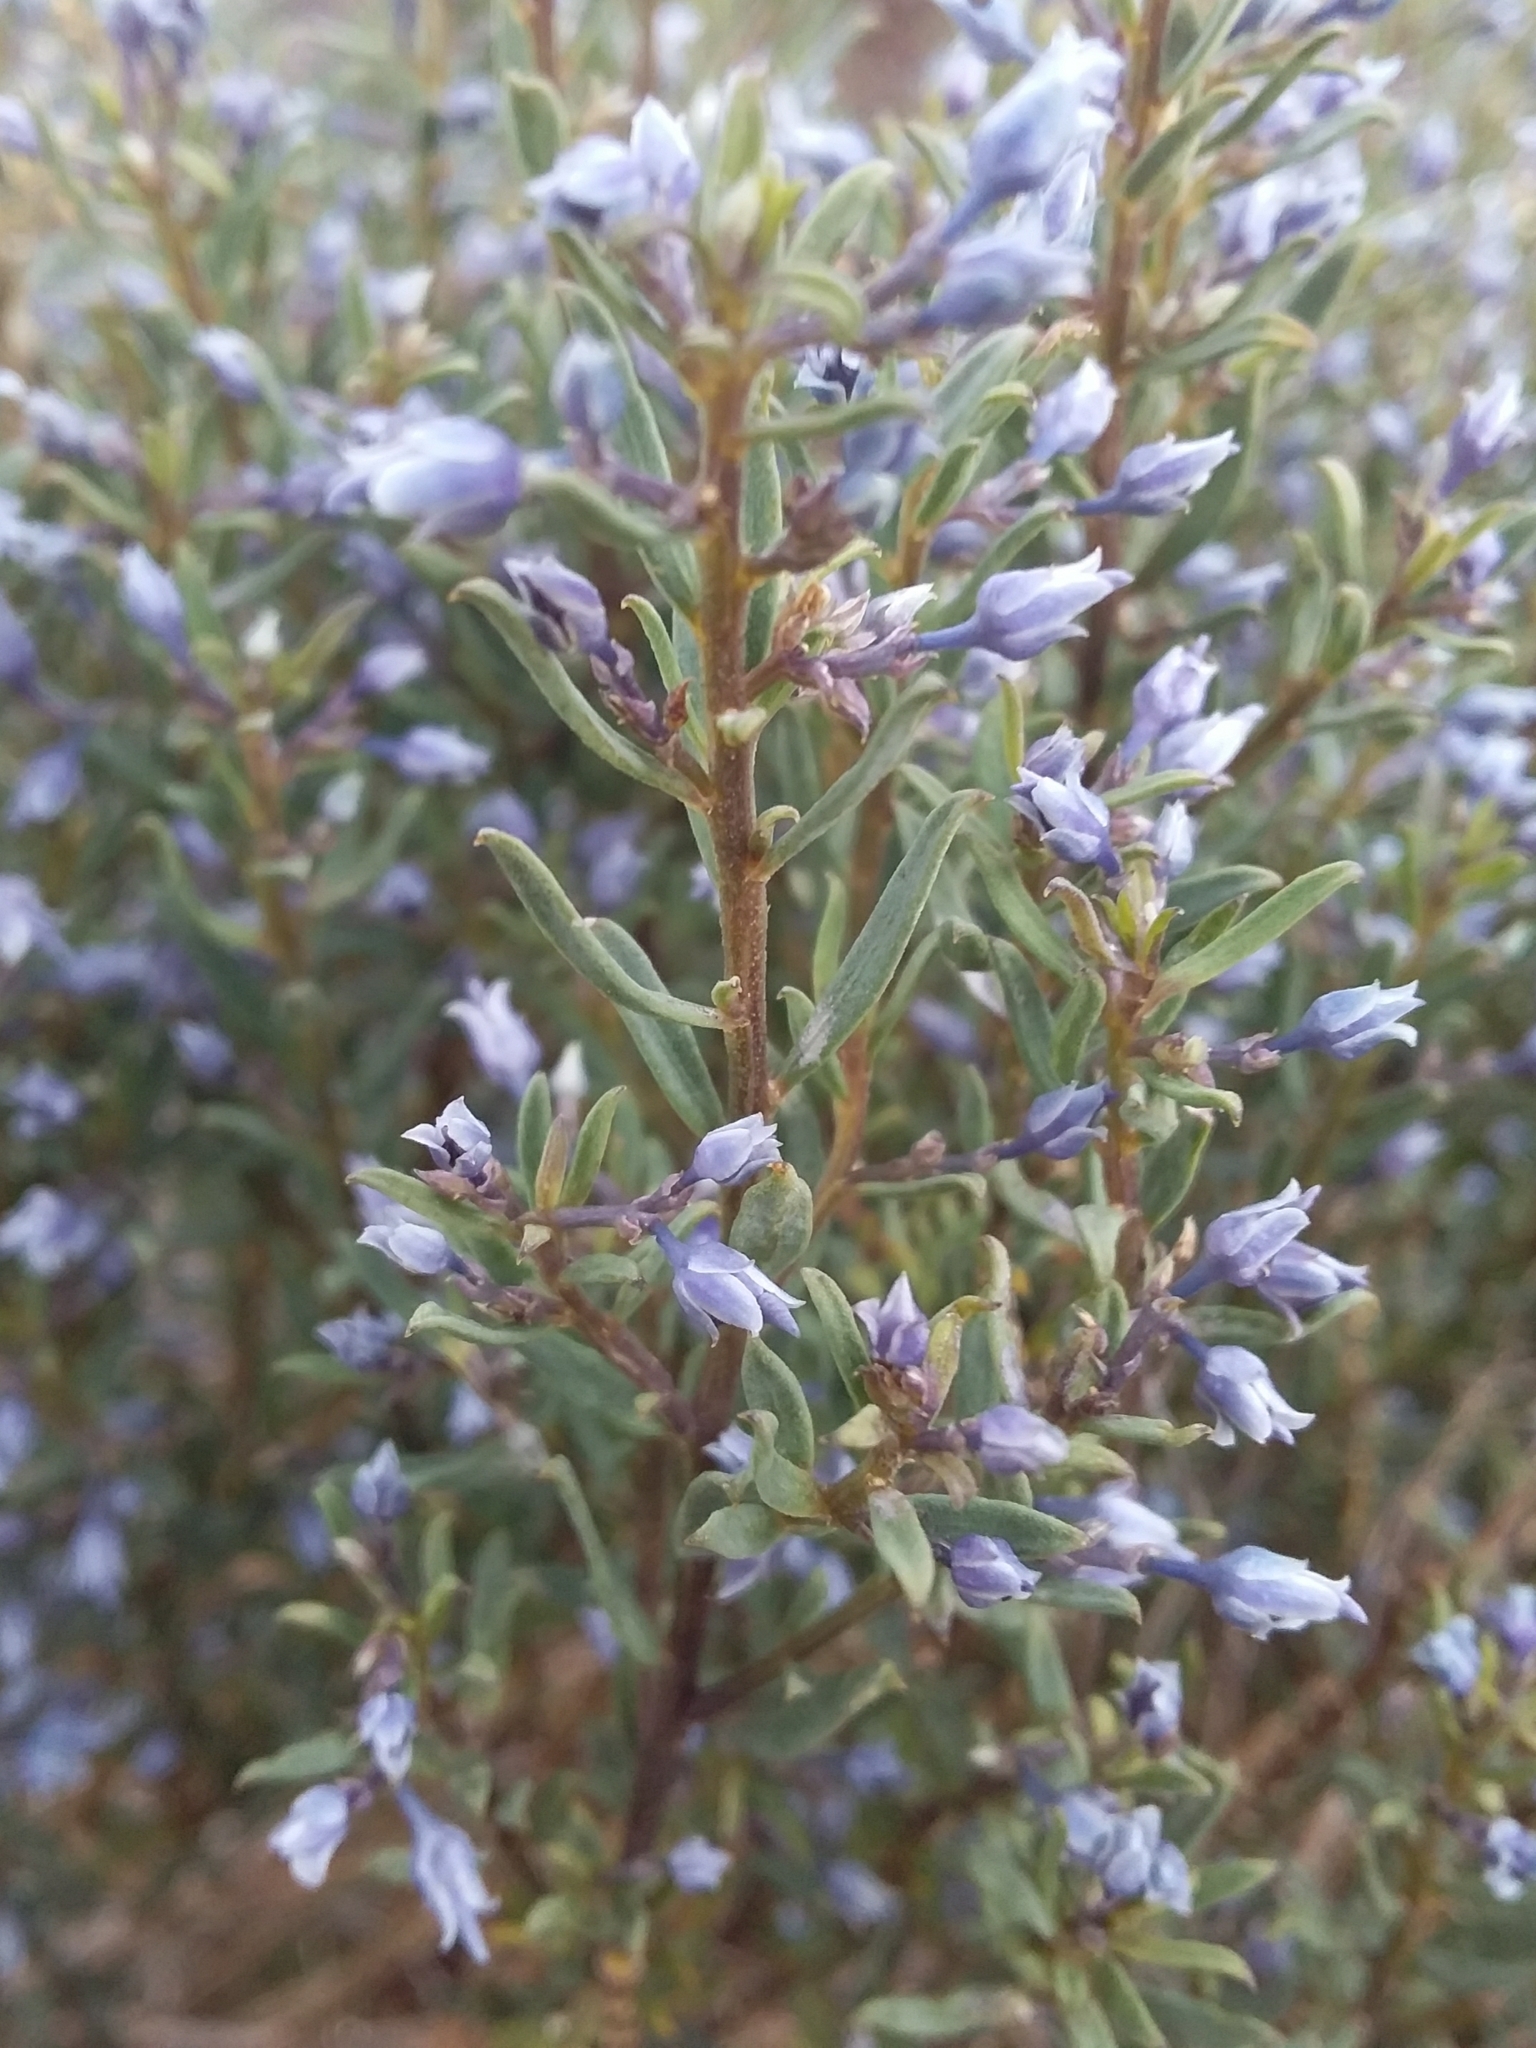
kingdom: Plantae
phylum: Tracheophyta
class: Magnoliopsida
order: Malpighiales
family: Violaceae
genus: Pigea
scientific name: Pigea floribunda
